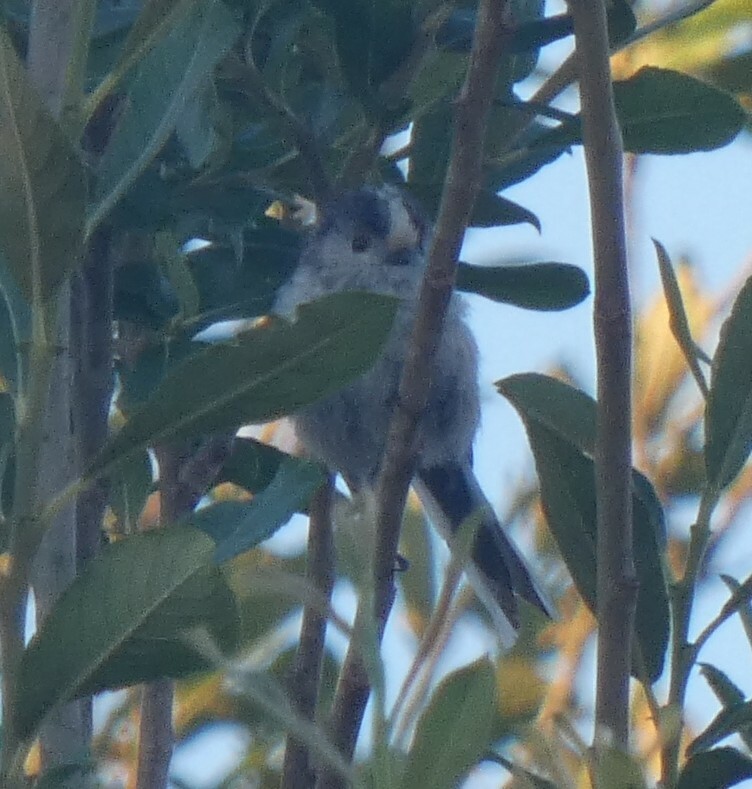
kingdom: Animalia
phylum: Chordata
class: Aves
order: Passeriformes
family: Aegithalidae
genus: Aegithalos
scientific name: Aegithalos caudatus
